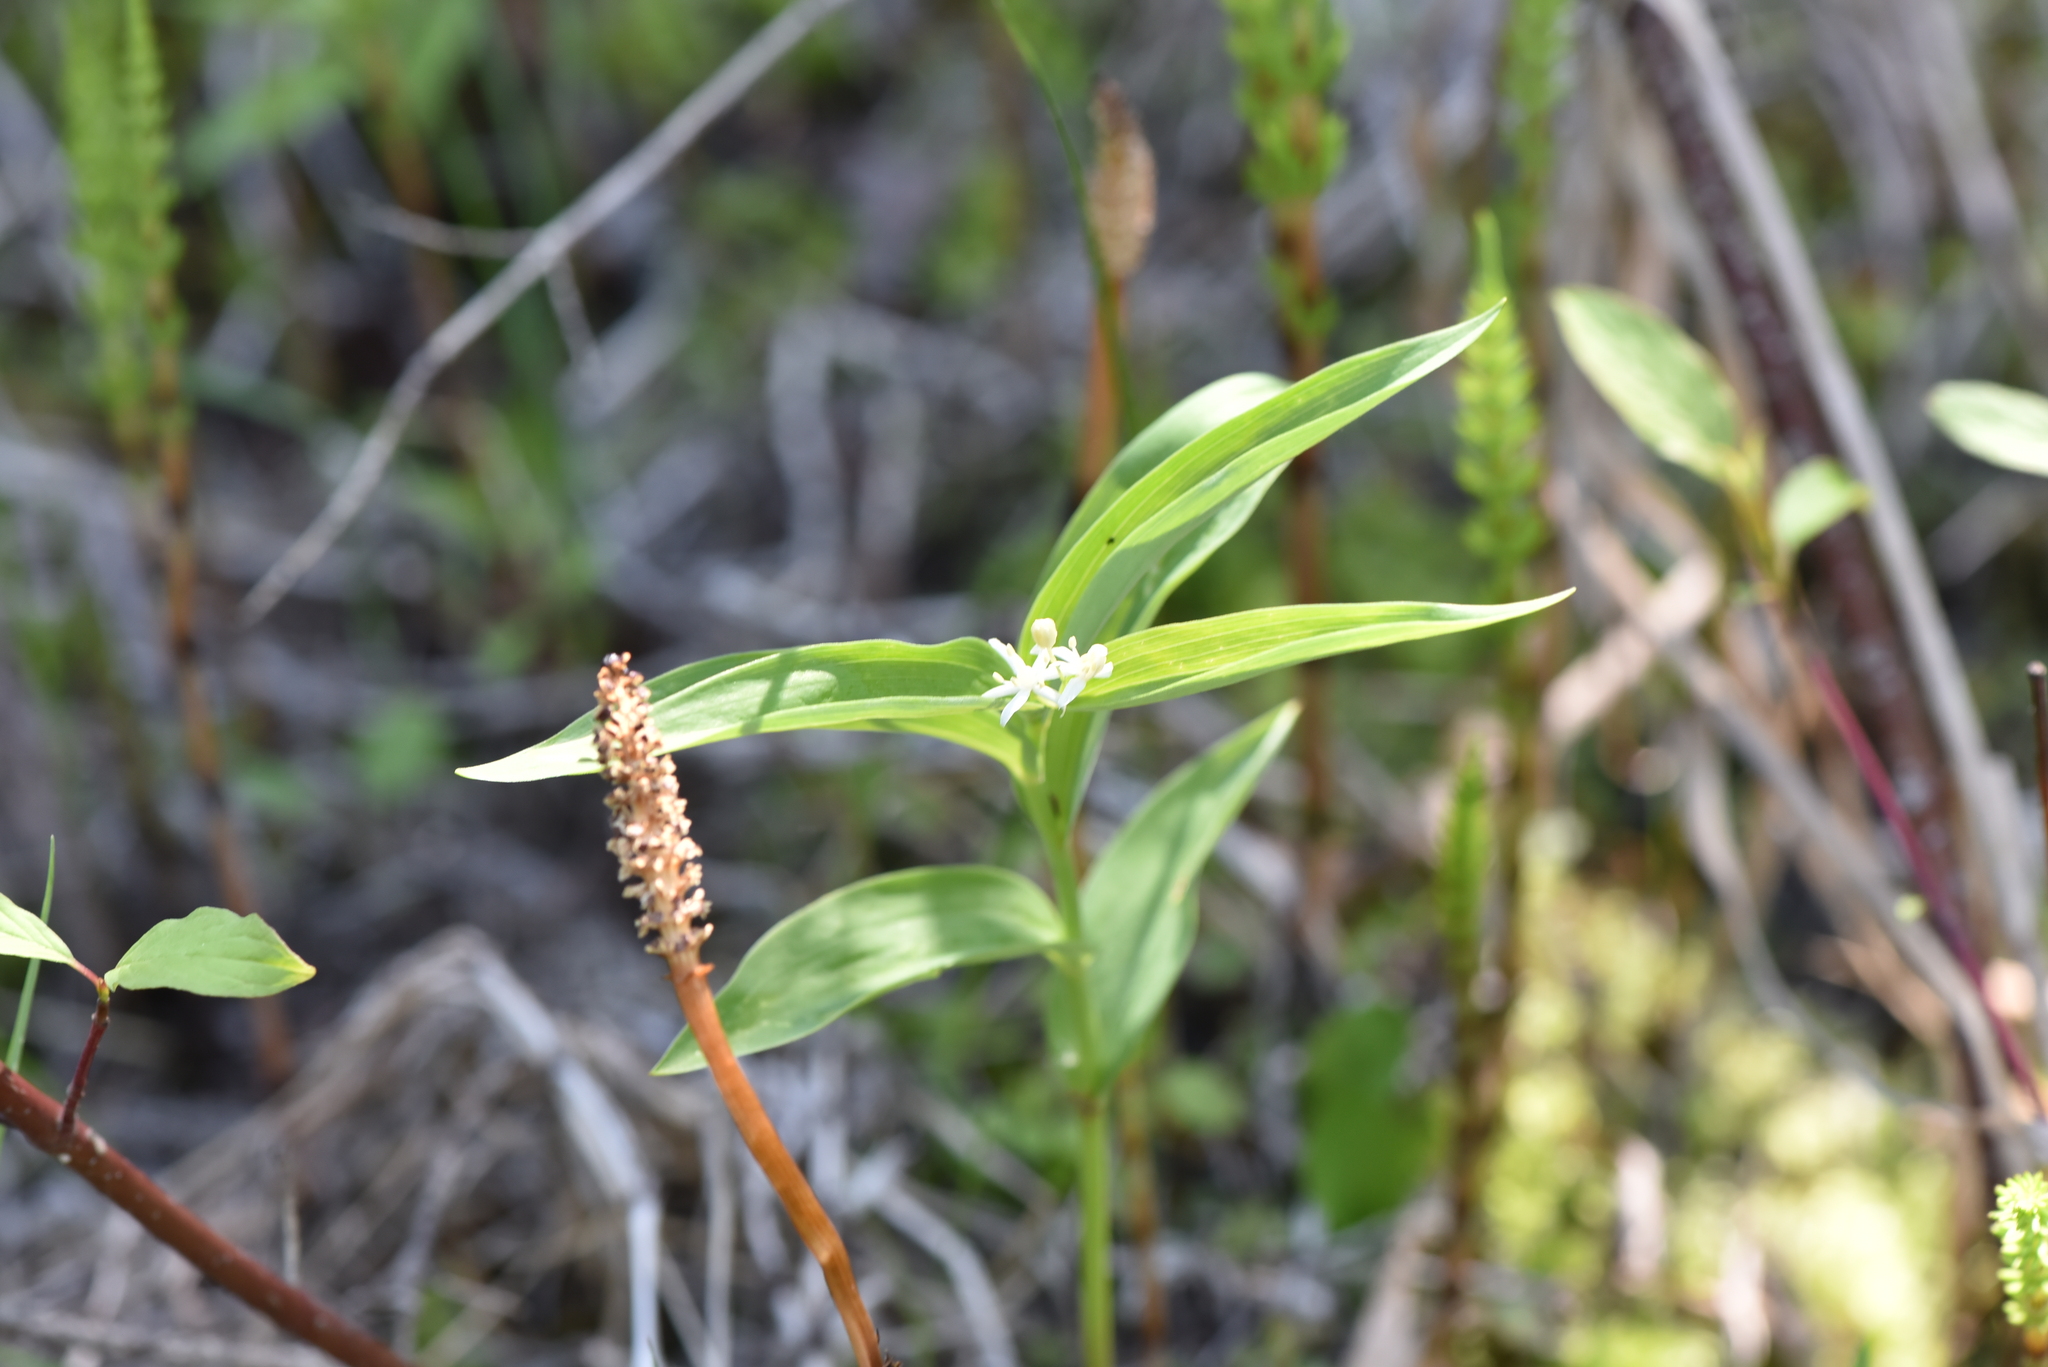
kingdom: Plantae
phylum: Tracheophyta
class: Liliopsida
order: Asparagales
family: Asparagaceae
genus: Maianthemum
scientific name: Maianthemum stellatum
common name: Little false solomon's seal
